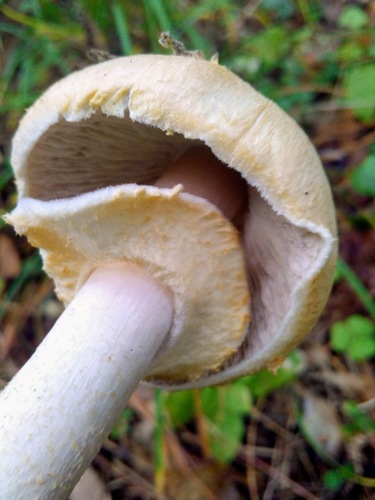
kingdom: Fungi
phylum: Basidiomycota
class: Agaricomycetes
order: Agaricales
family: Agaricaceae
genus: Agaricus
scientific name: Agaricus
